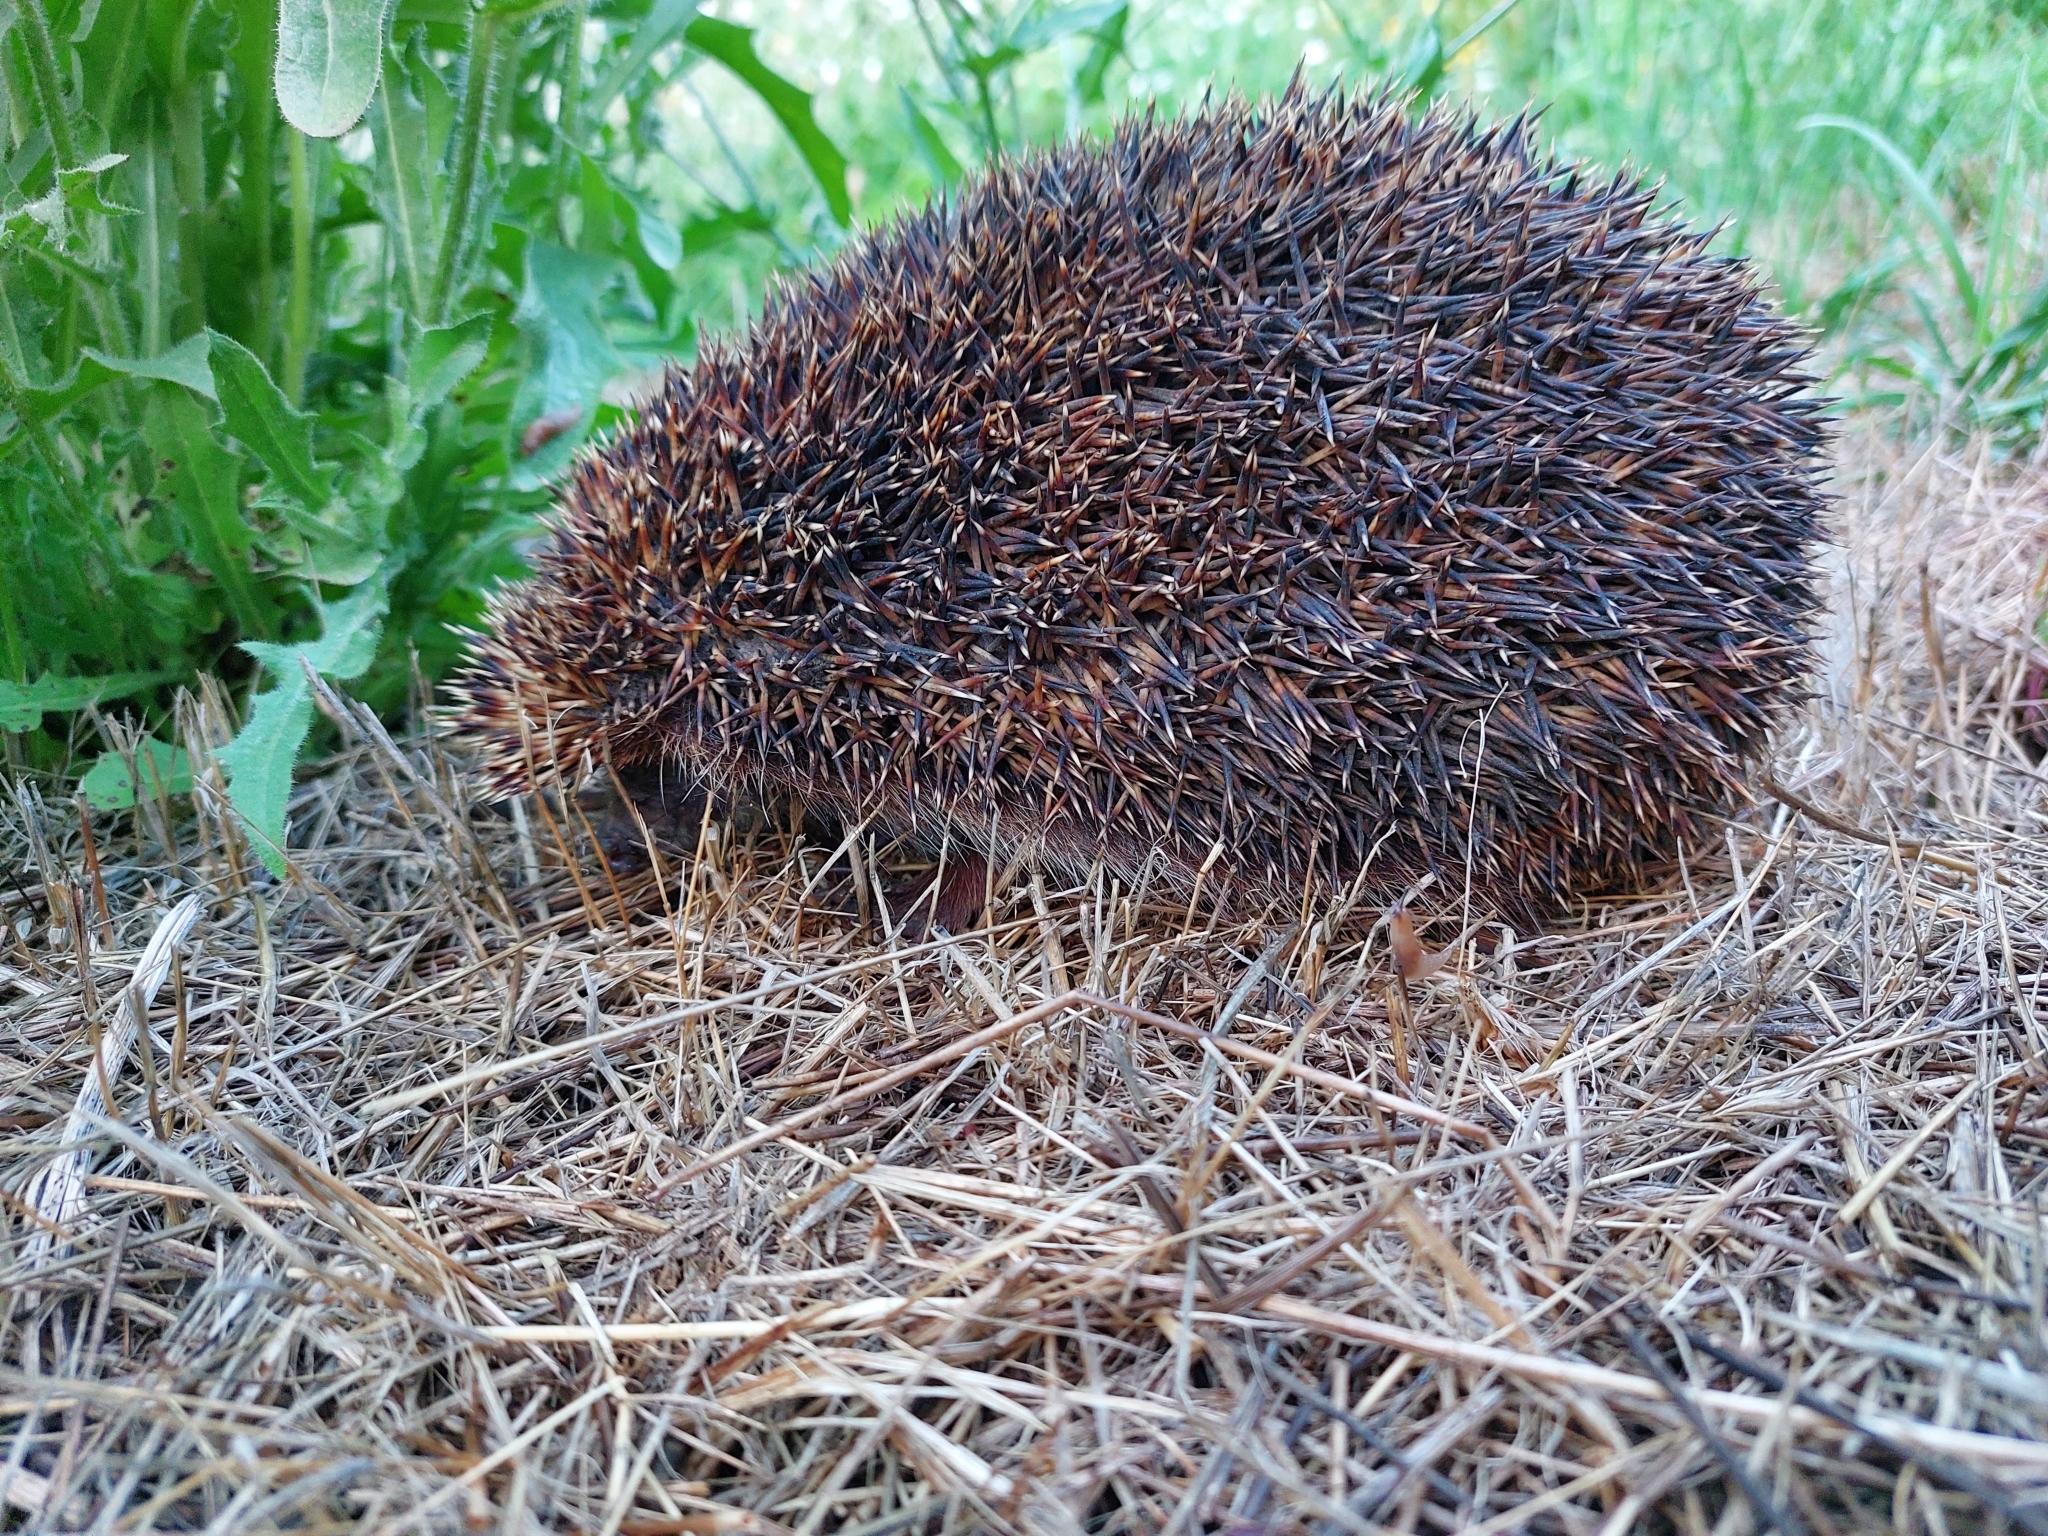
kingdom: Animalia
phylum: Chordata
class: Mammalia
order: Erinaceomorpha
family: Erinaceidae
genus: Erinaceus
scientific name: Erinaceus roumanicus
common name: Northern white-breasted hedgehog
